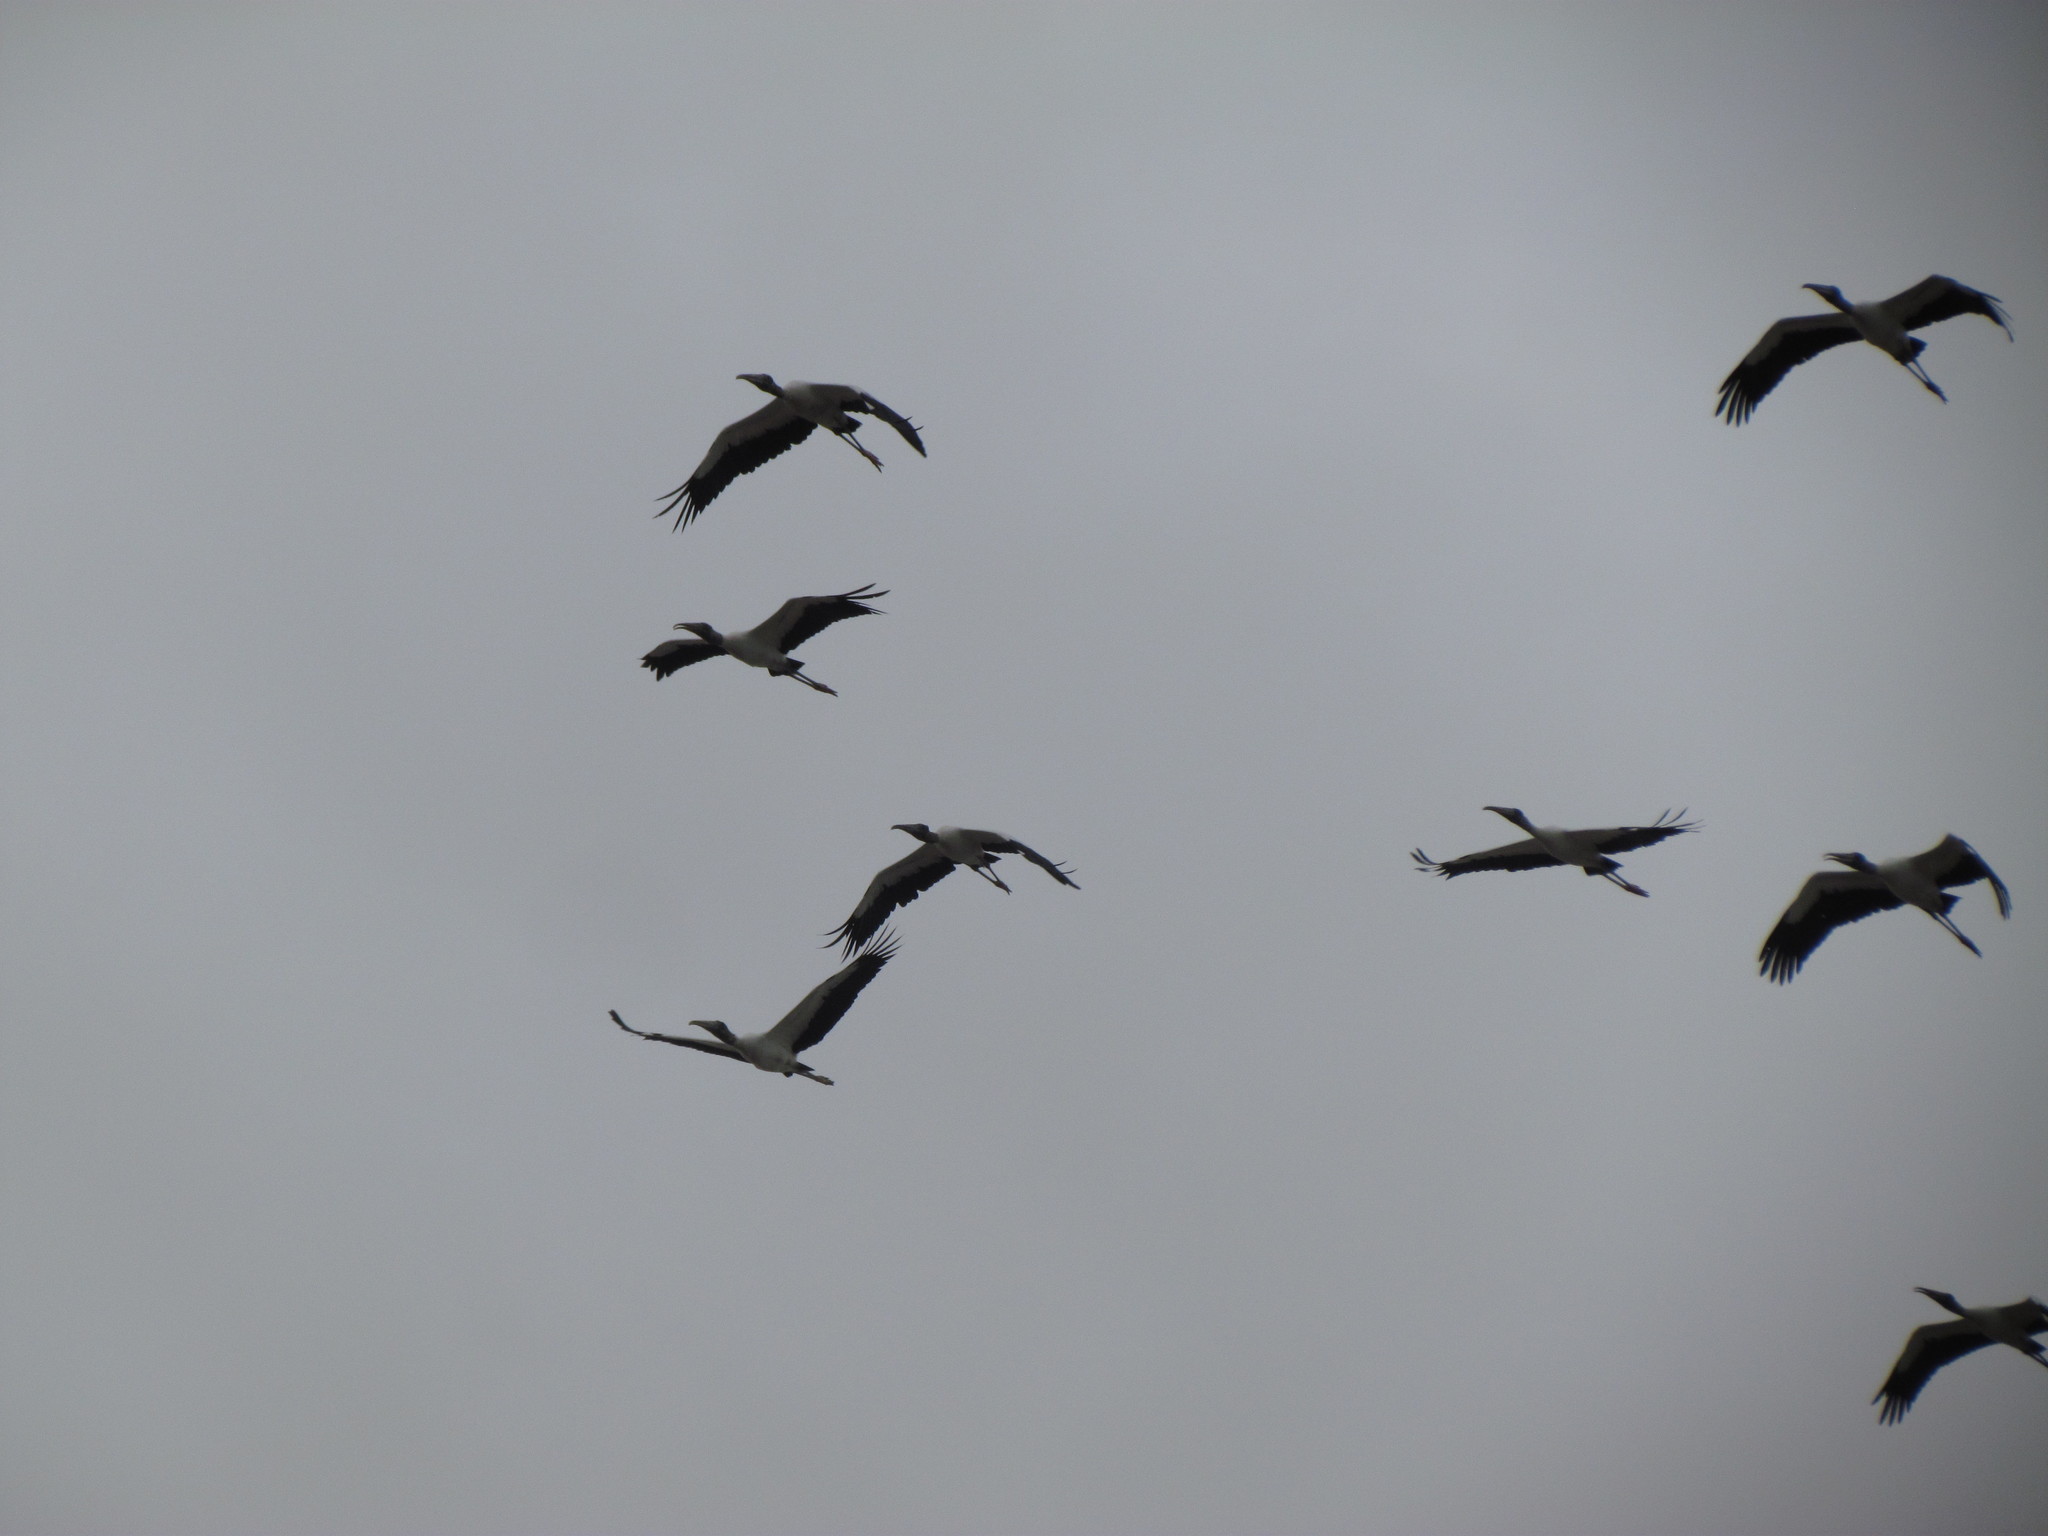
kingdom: Animalia
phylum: Chordata
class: Aves
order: Ciconiiformes
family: Ciconiidae
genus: Mycteria
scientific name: Mycteria americana
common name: Wood stork
